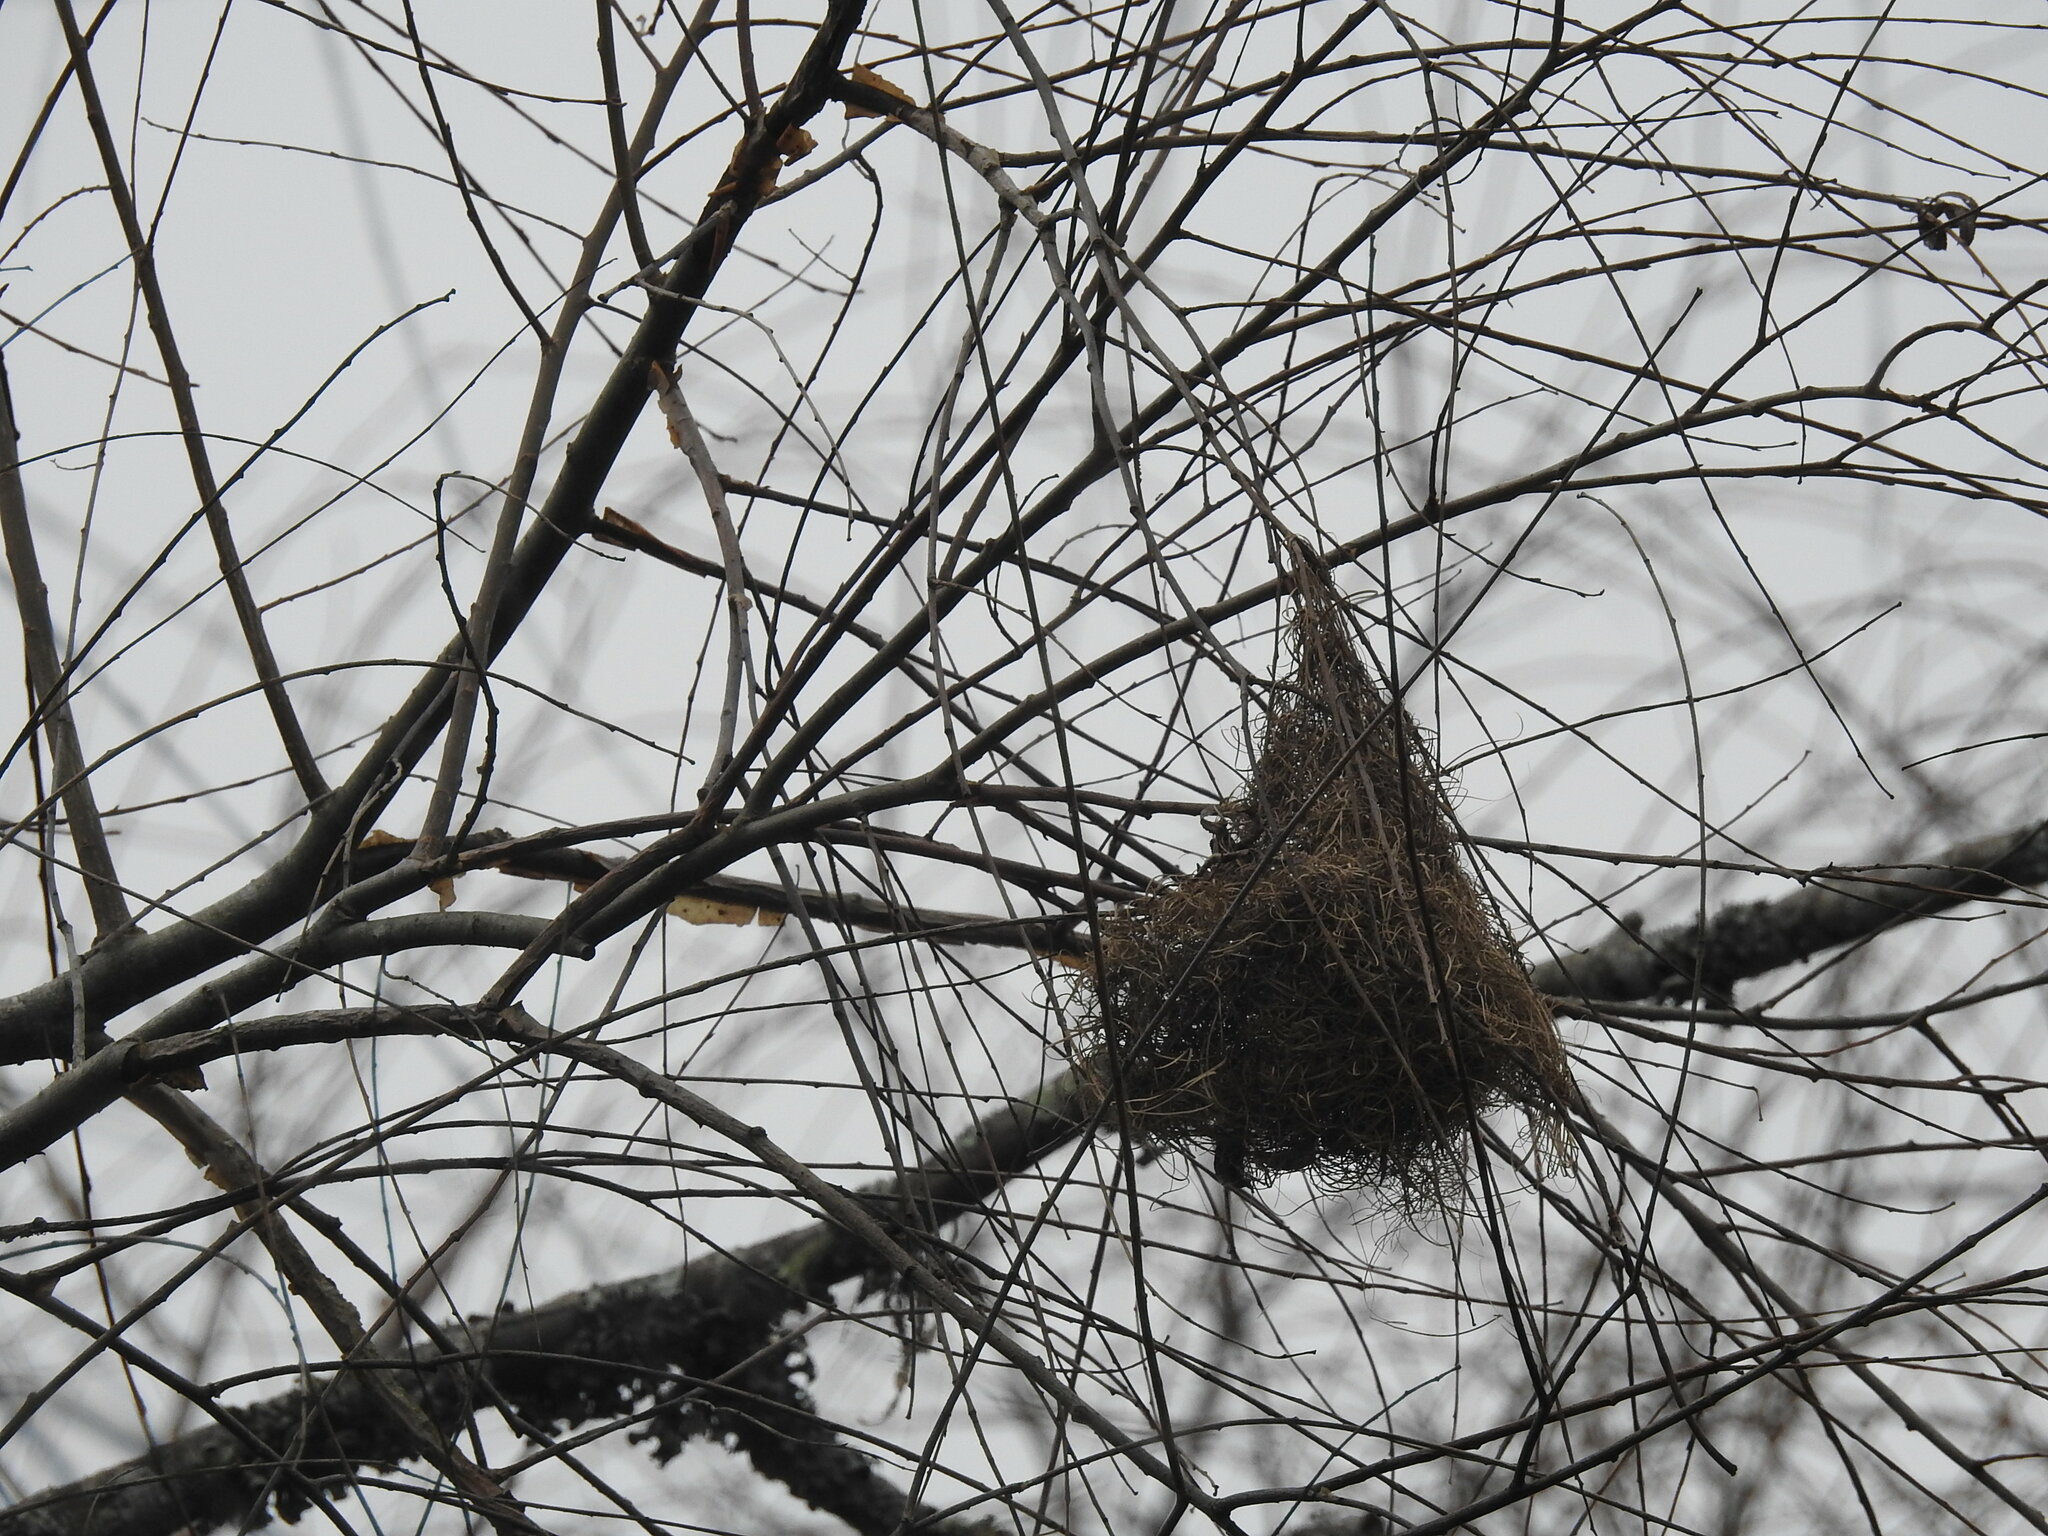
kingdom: Animalia
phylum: Chordata
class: Aves
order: Passeriformes
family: Icteridae
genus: Cacicus
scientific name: Cacicus solitarius
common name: Solitary cacique
